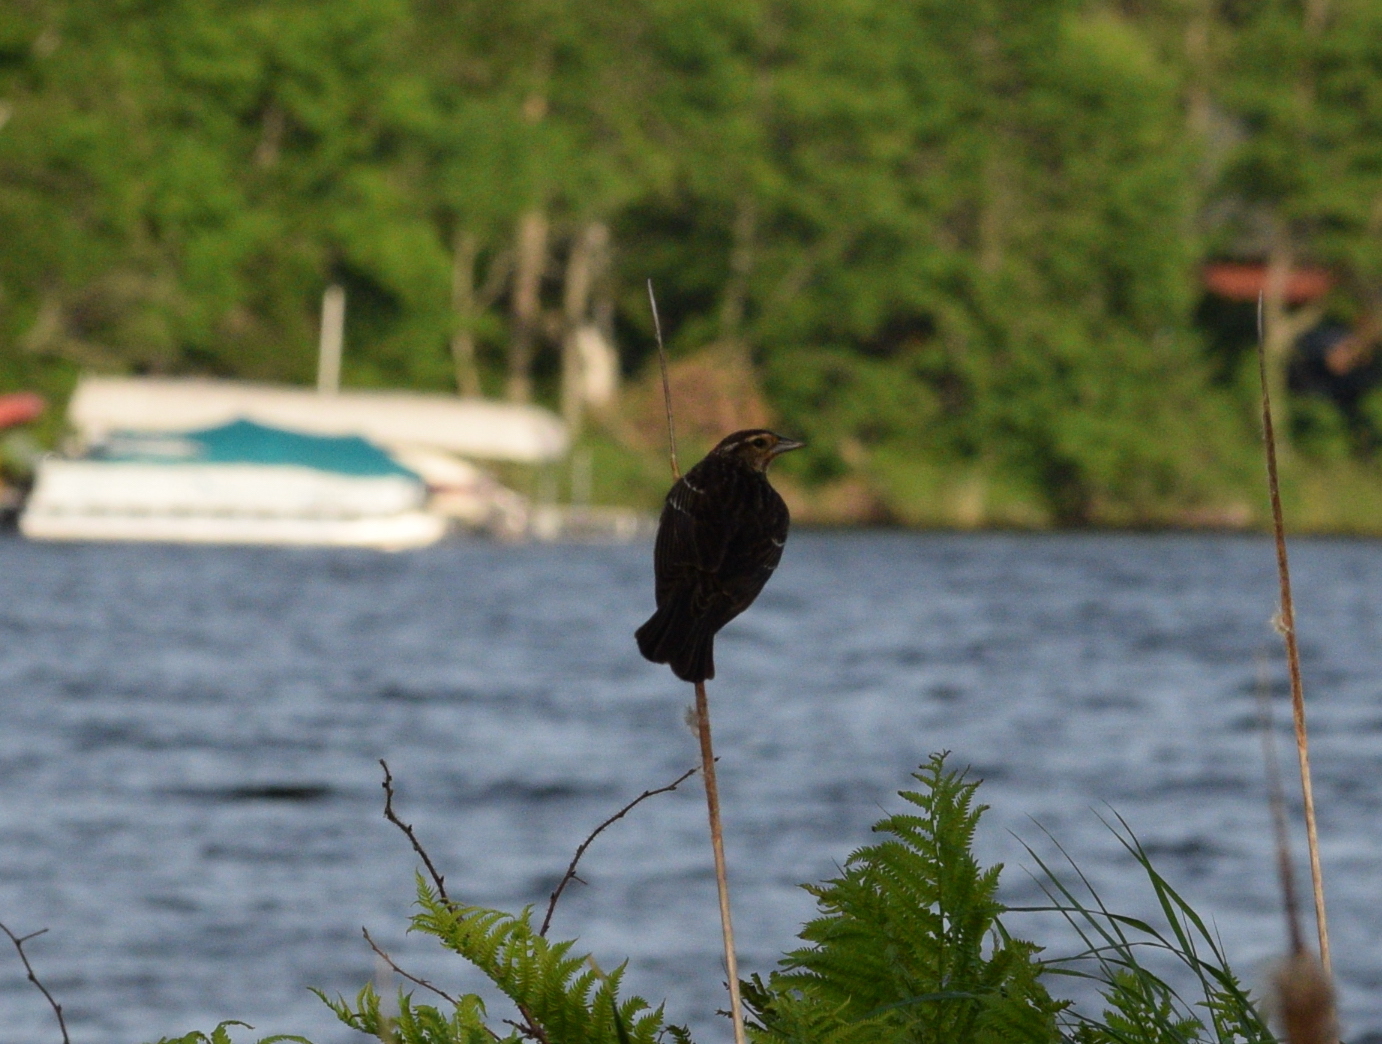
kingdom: Animalia
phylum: Chordata
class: Aves
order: Passeriformes
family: Icteridae
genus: Agelaius
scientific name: Agelaius phoeniceus
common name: Red-winged blackbird
